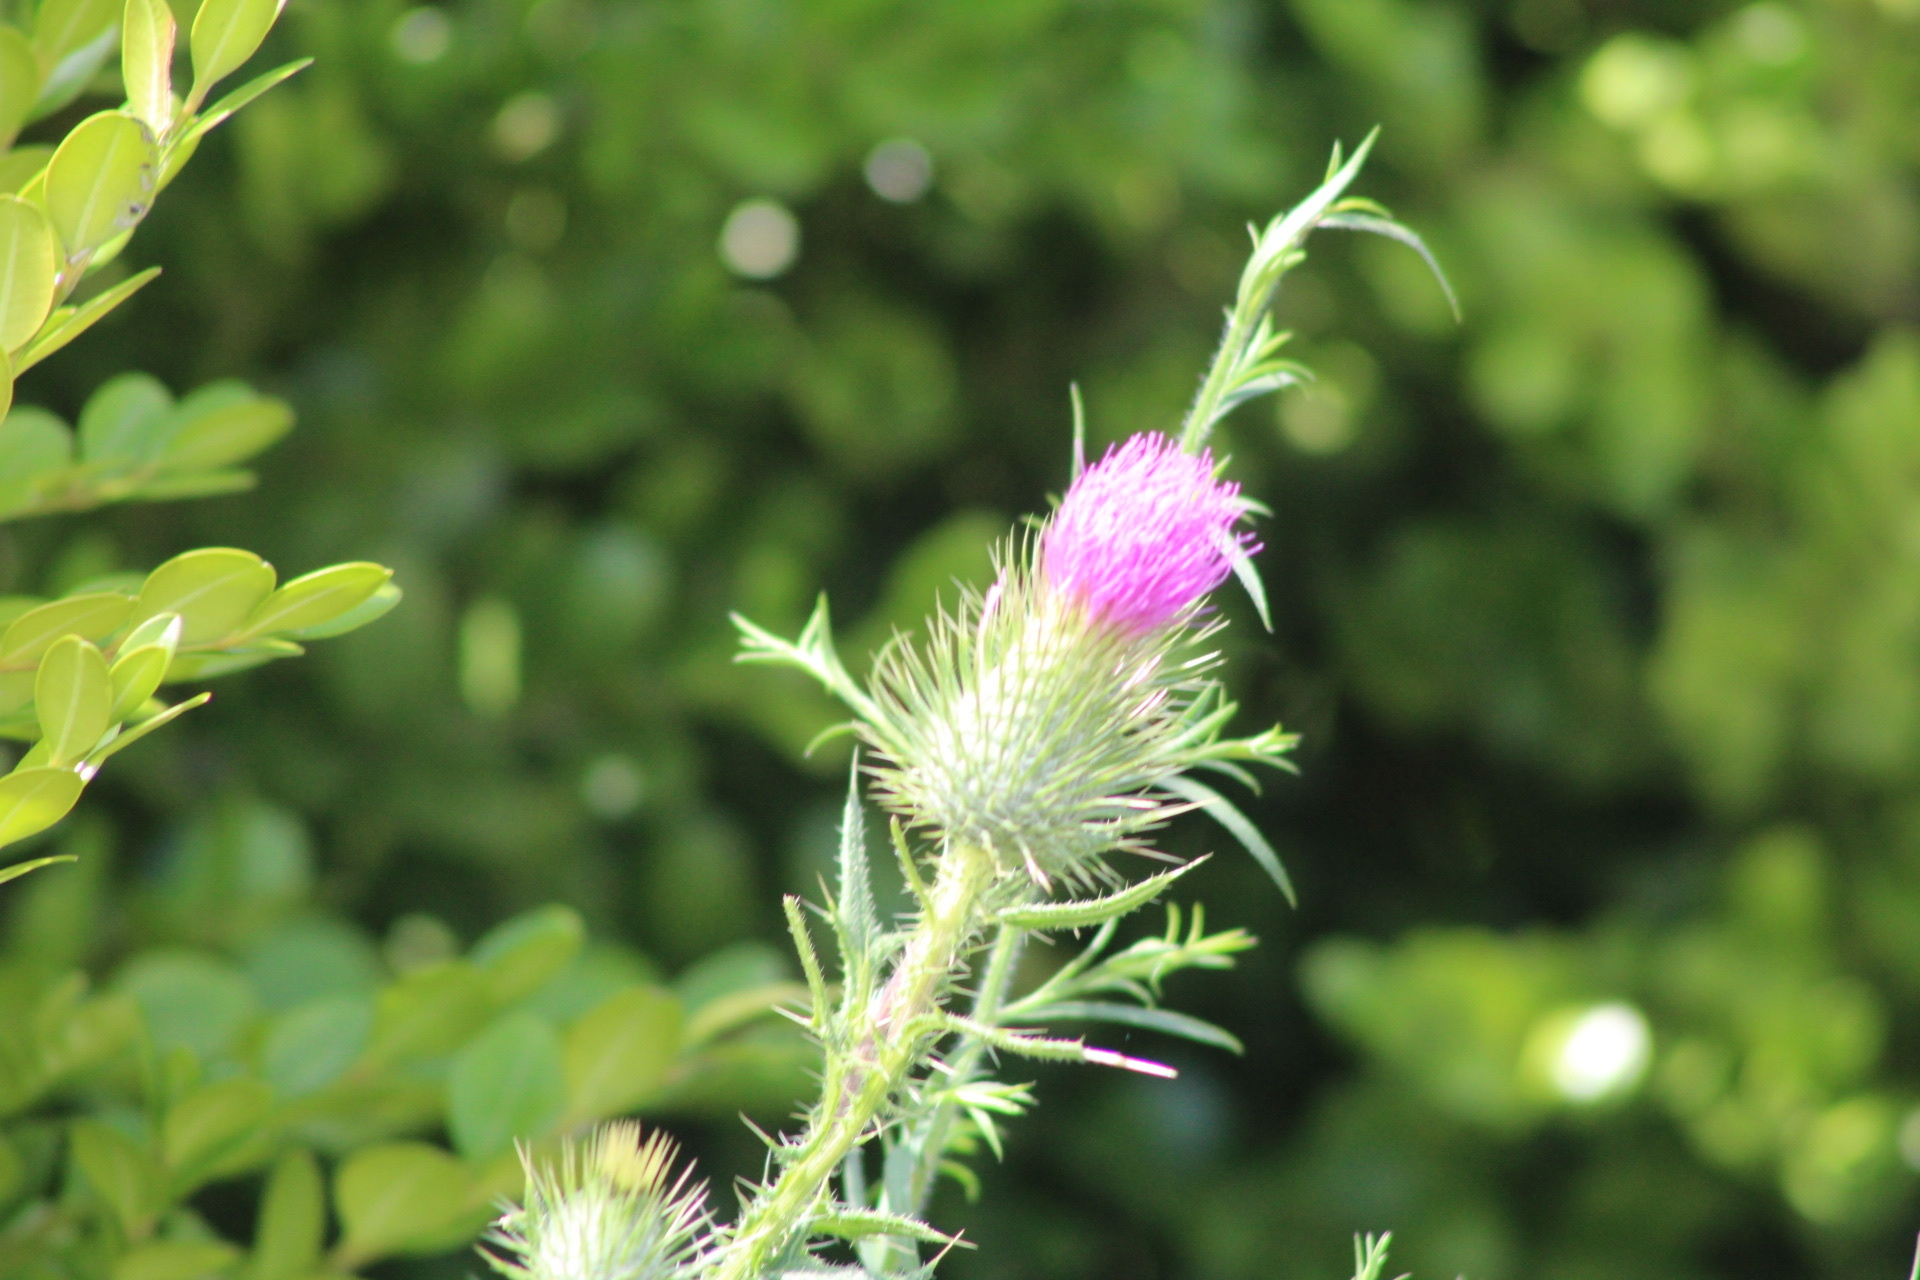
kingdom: Plantae
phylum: Tracheophyta
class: Magnoliopsida
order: Asterales
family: Asteraceae
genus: Cirsium
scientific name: Cirsium vulgare
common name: Bull thistle
